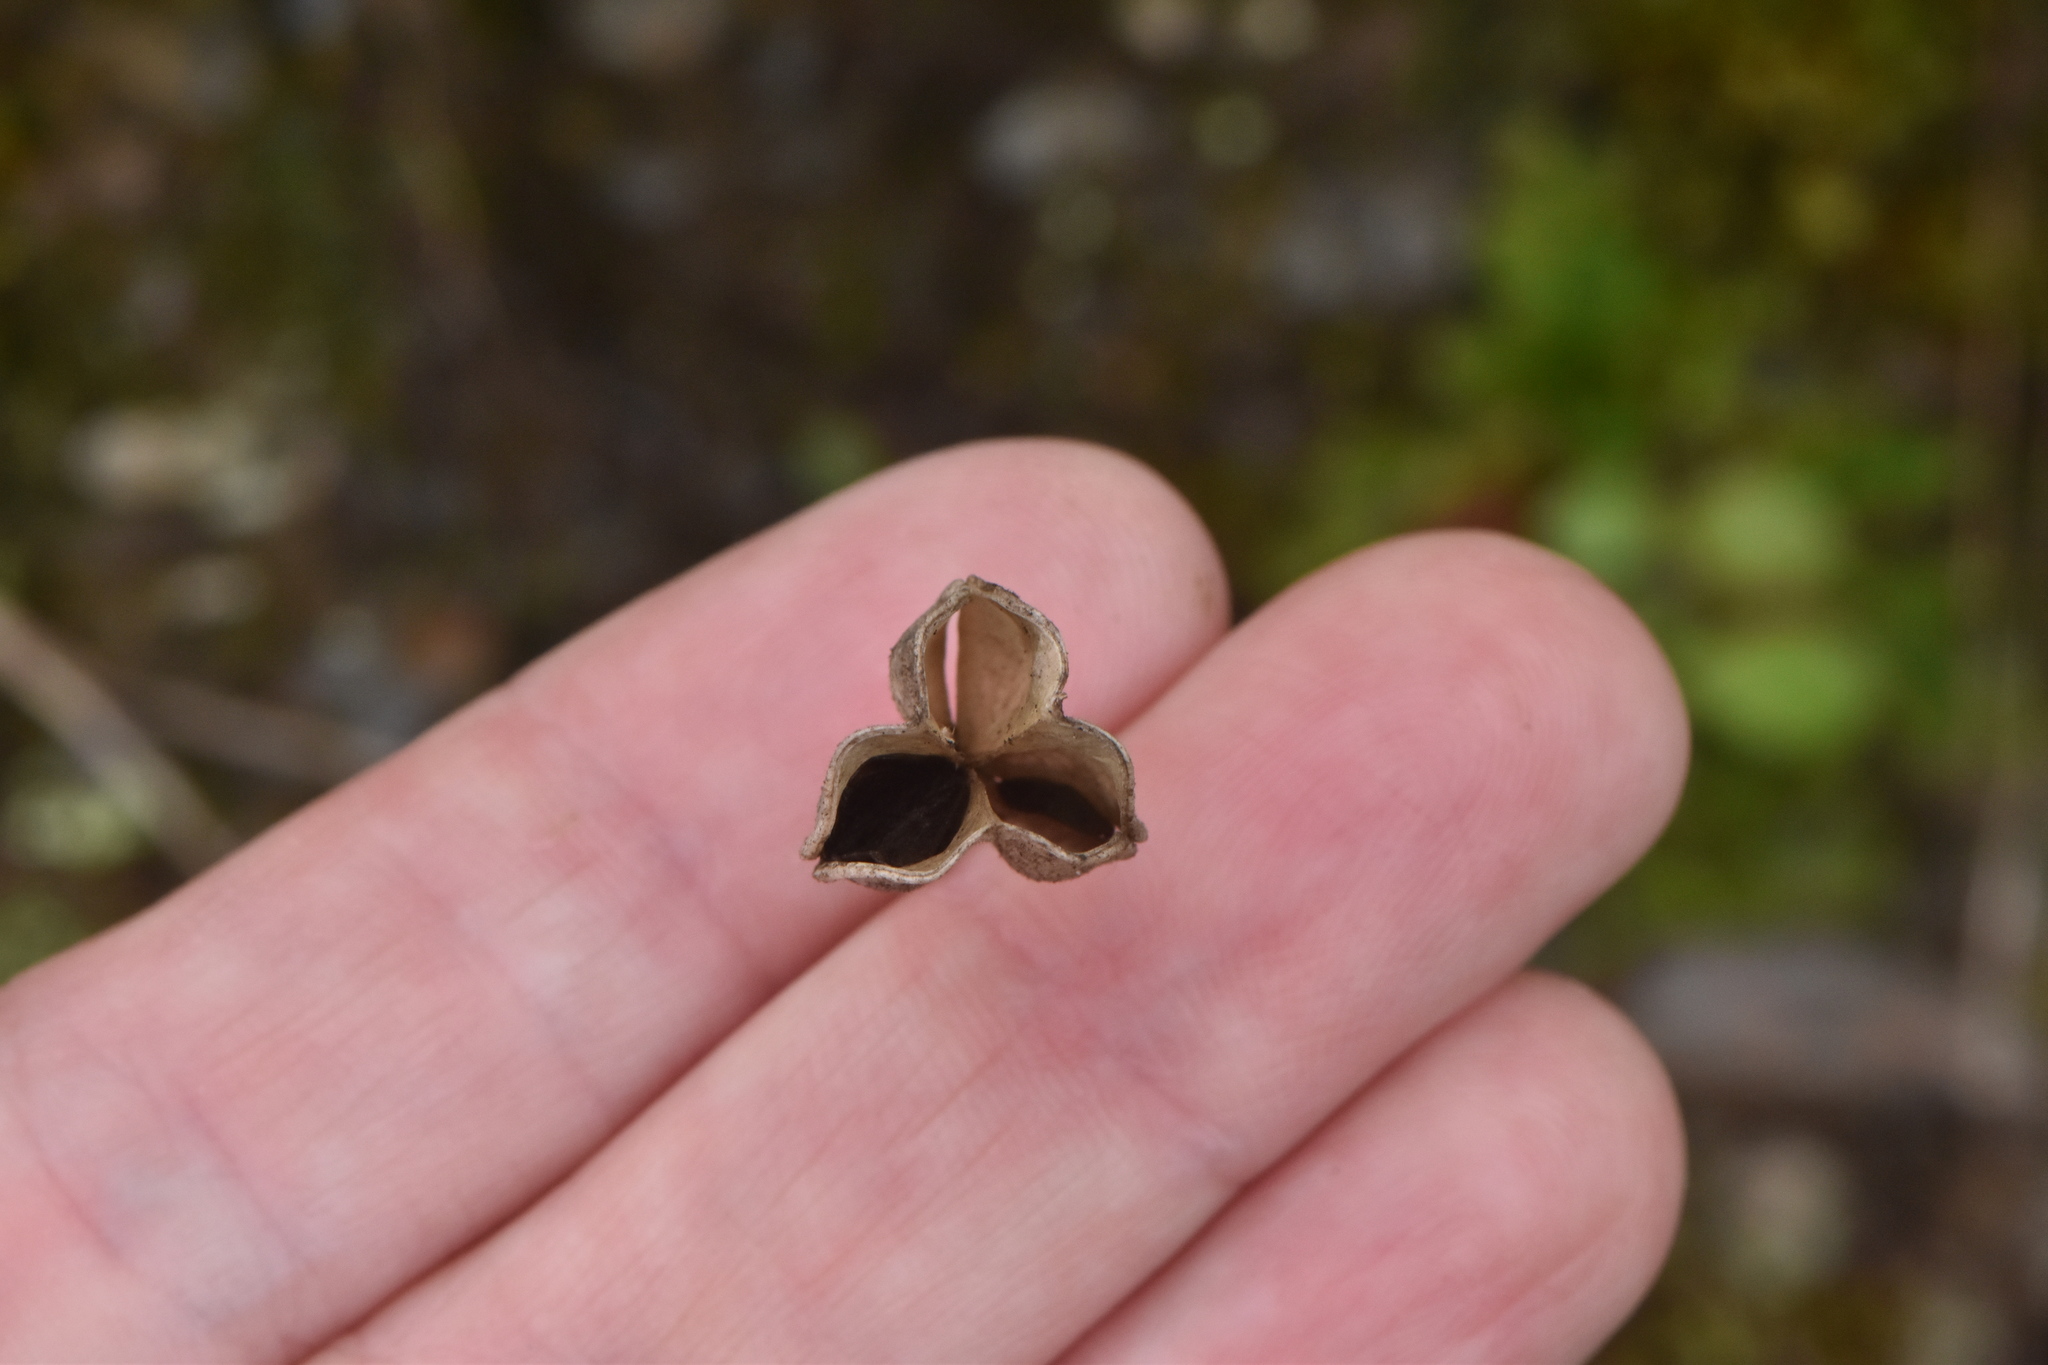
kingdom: Plantae
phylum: Tracheophyta
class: Liliopsida
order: Asparagales
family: Asparagaceae
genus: Drimia
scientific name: Drimia maritima
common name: Maritime squill
